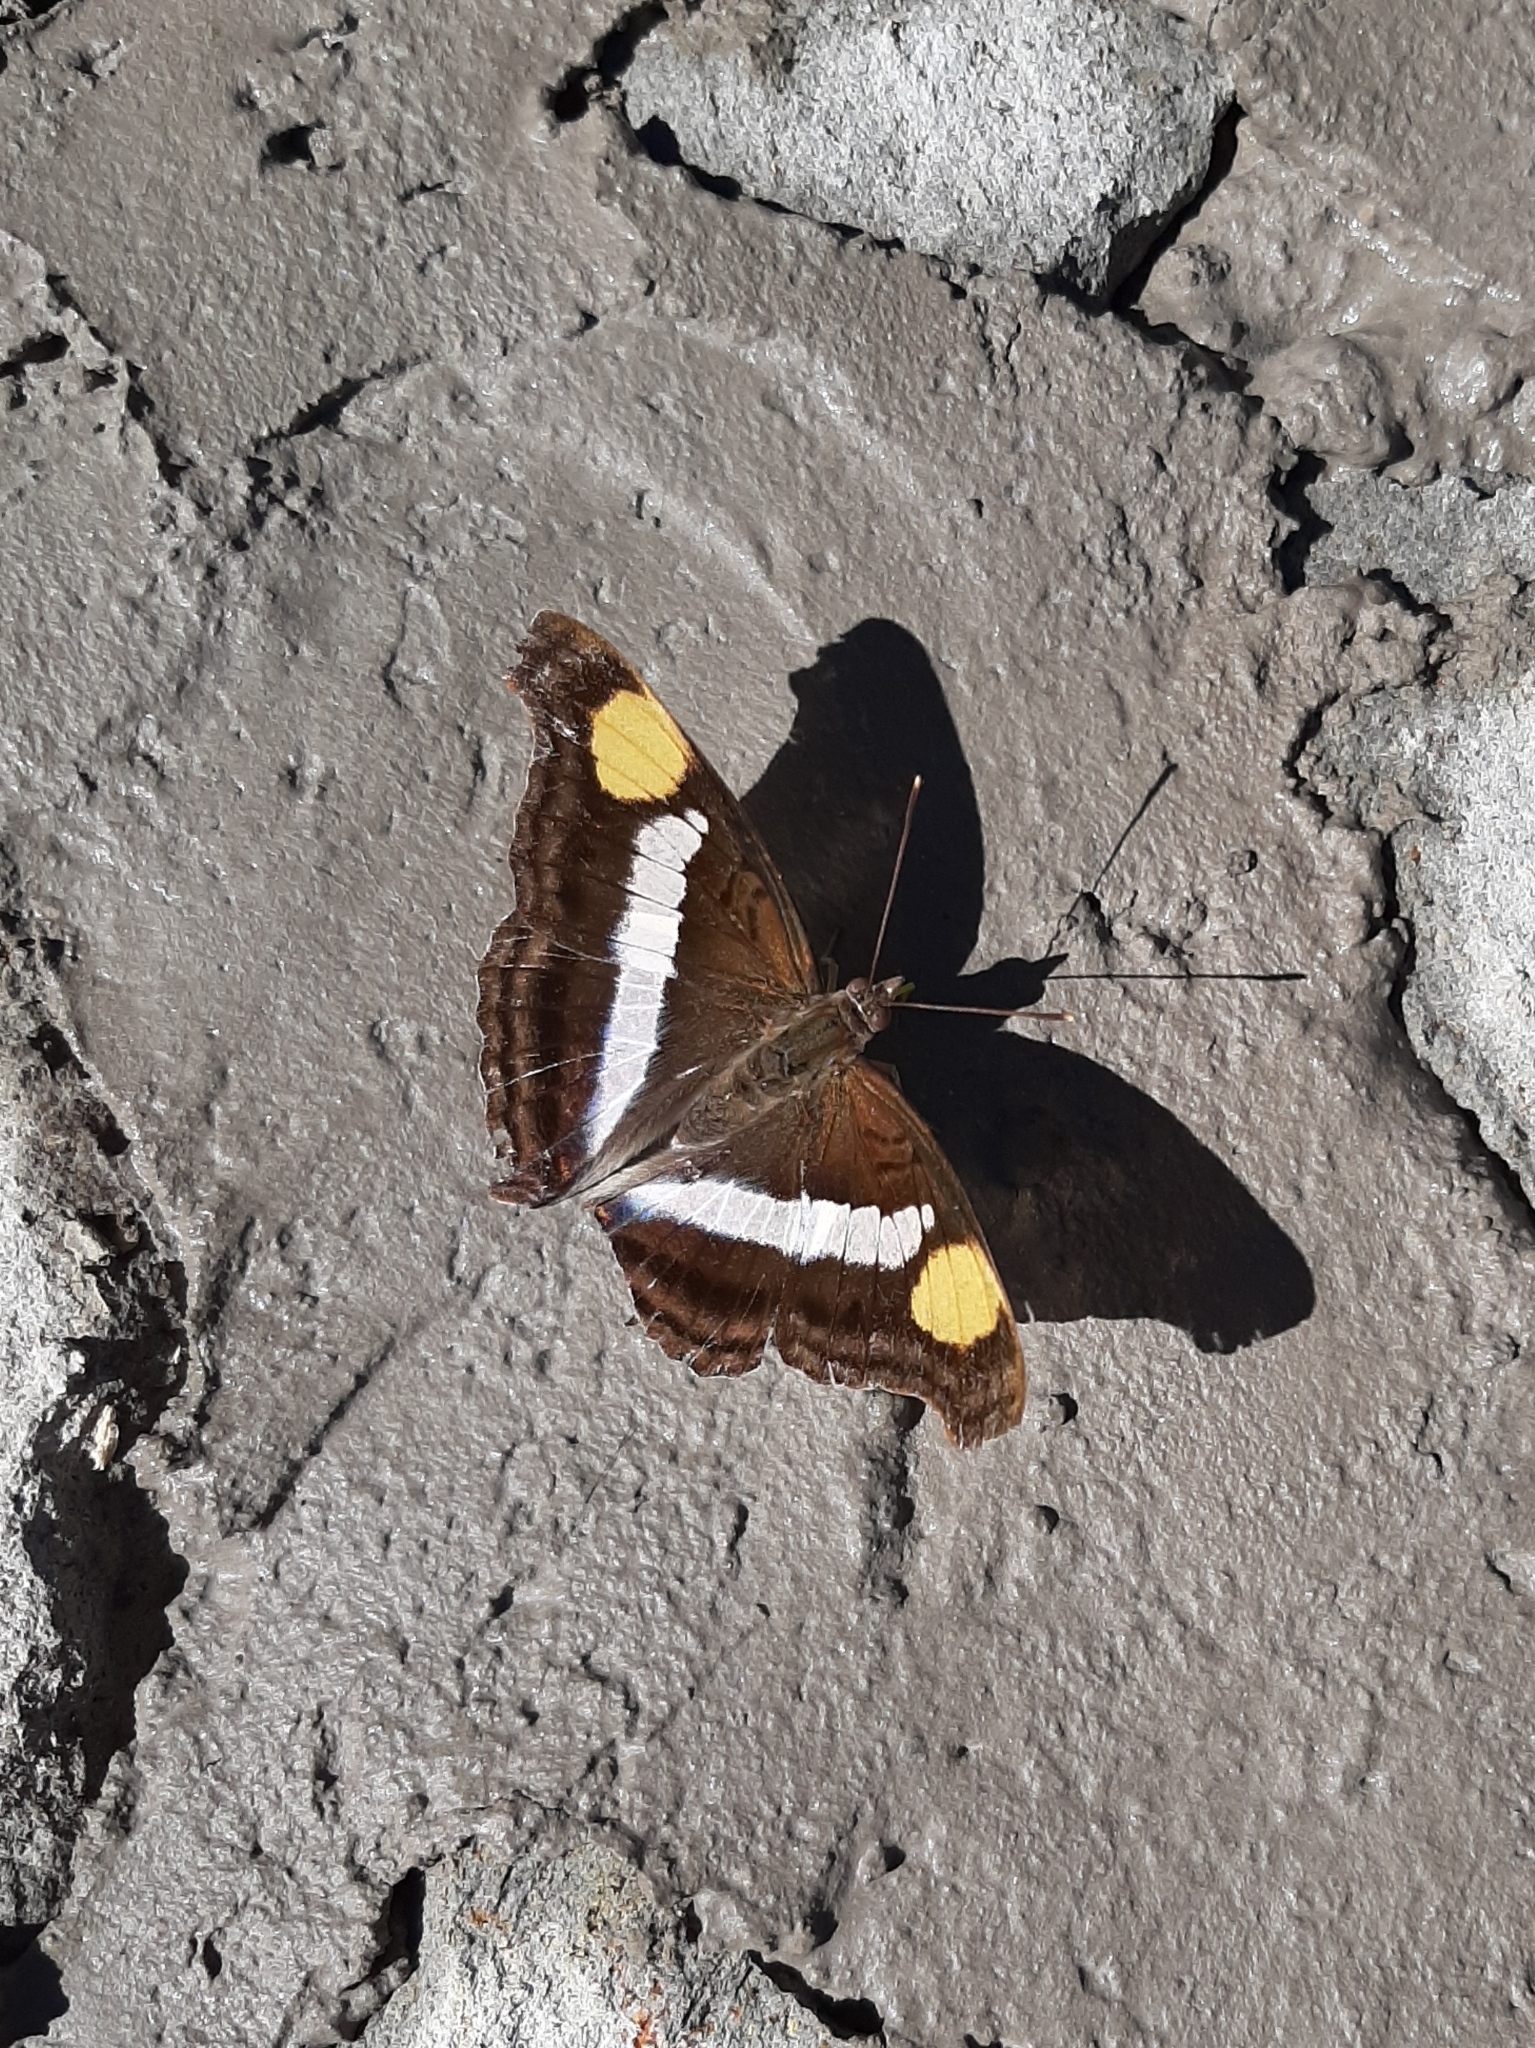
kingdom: Animalia
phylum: Arthropoda
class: Insecta
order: Lepidoptera
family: Nymphalidae
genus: Doxocopa
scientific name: Doxocopa laure
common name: Silver emperor
